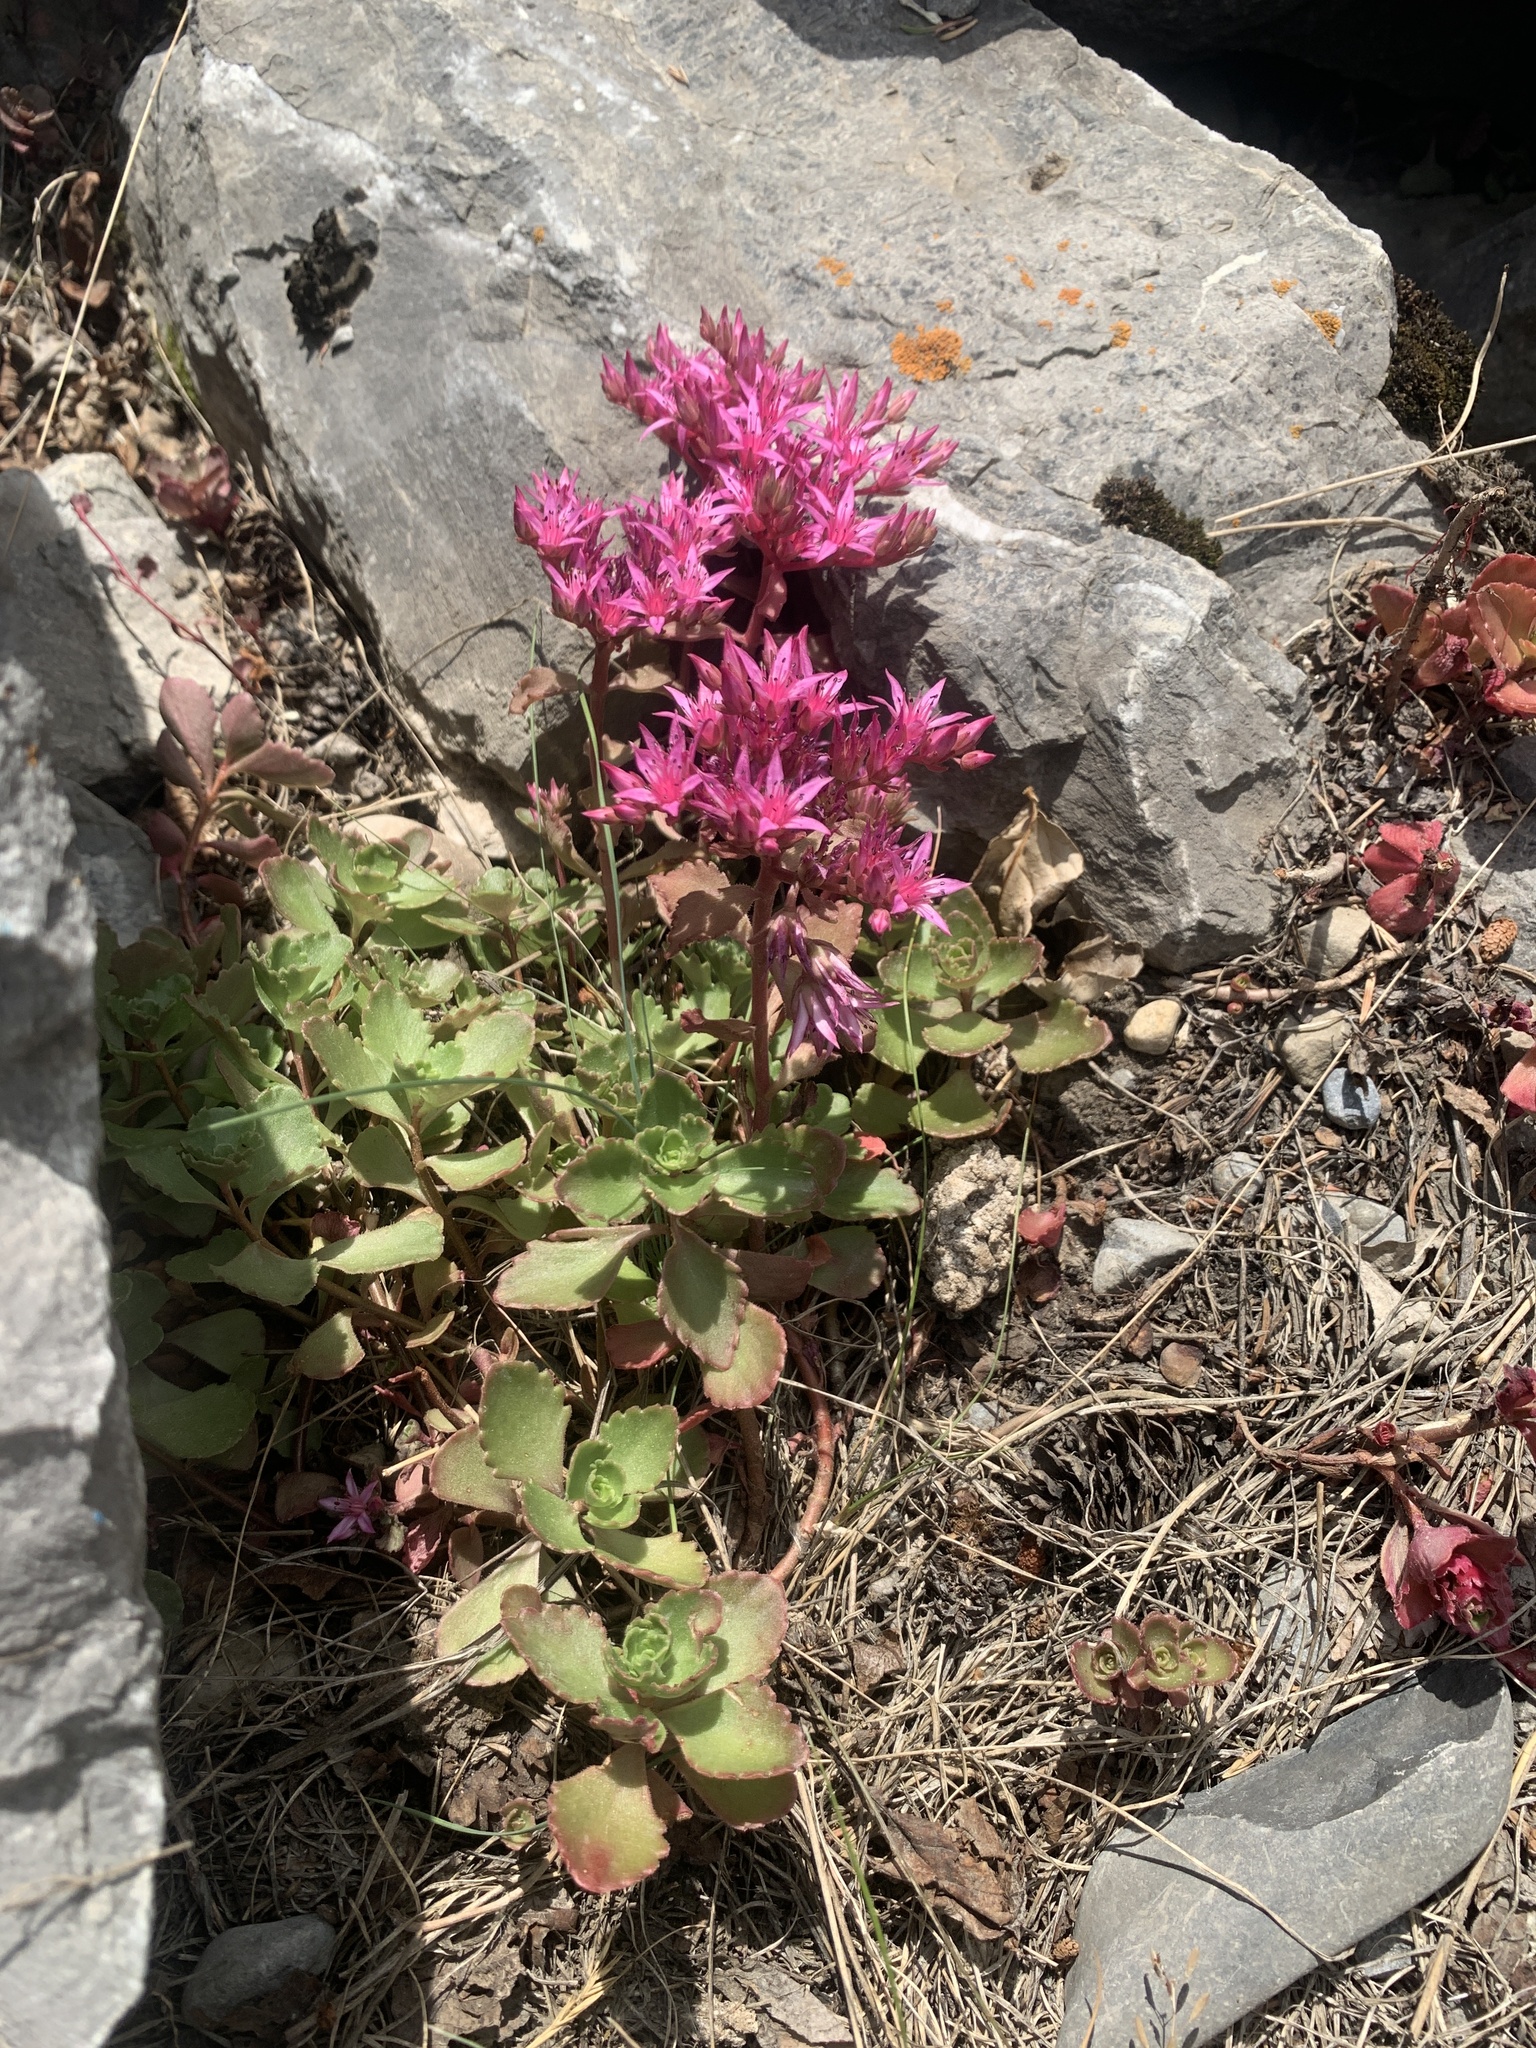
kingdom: Plantae
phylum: Tracheophyta
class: Magnoliopsida
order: Saxifragales
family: Crassulaceae
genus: Phedimus
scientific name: Phedimus spurius
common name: Caucasian stonecrop
